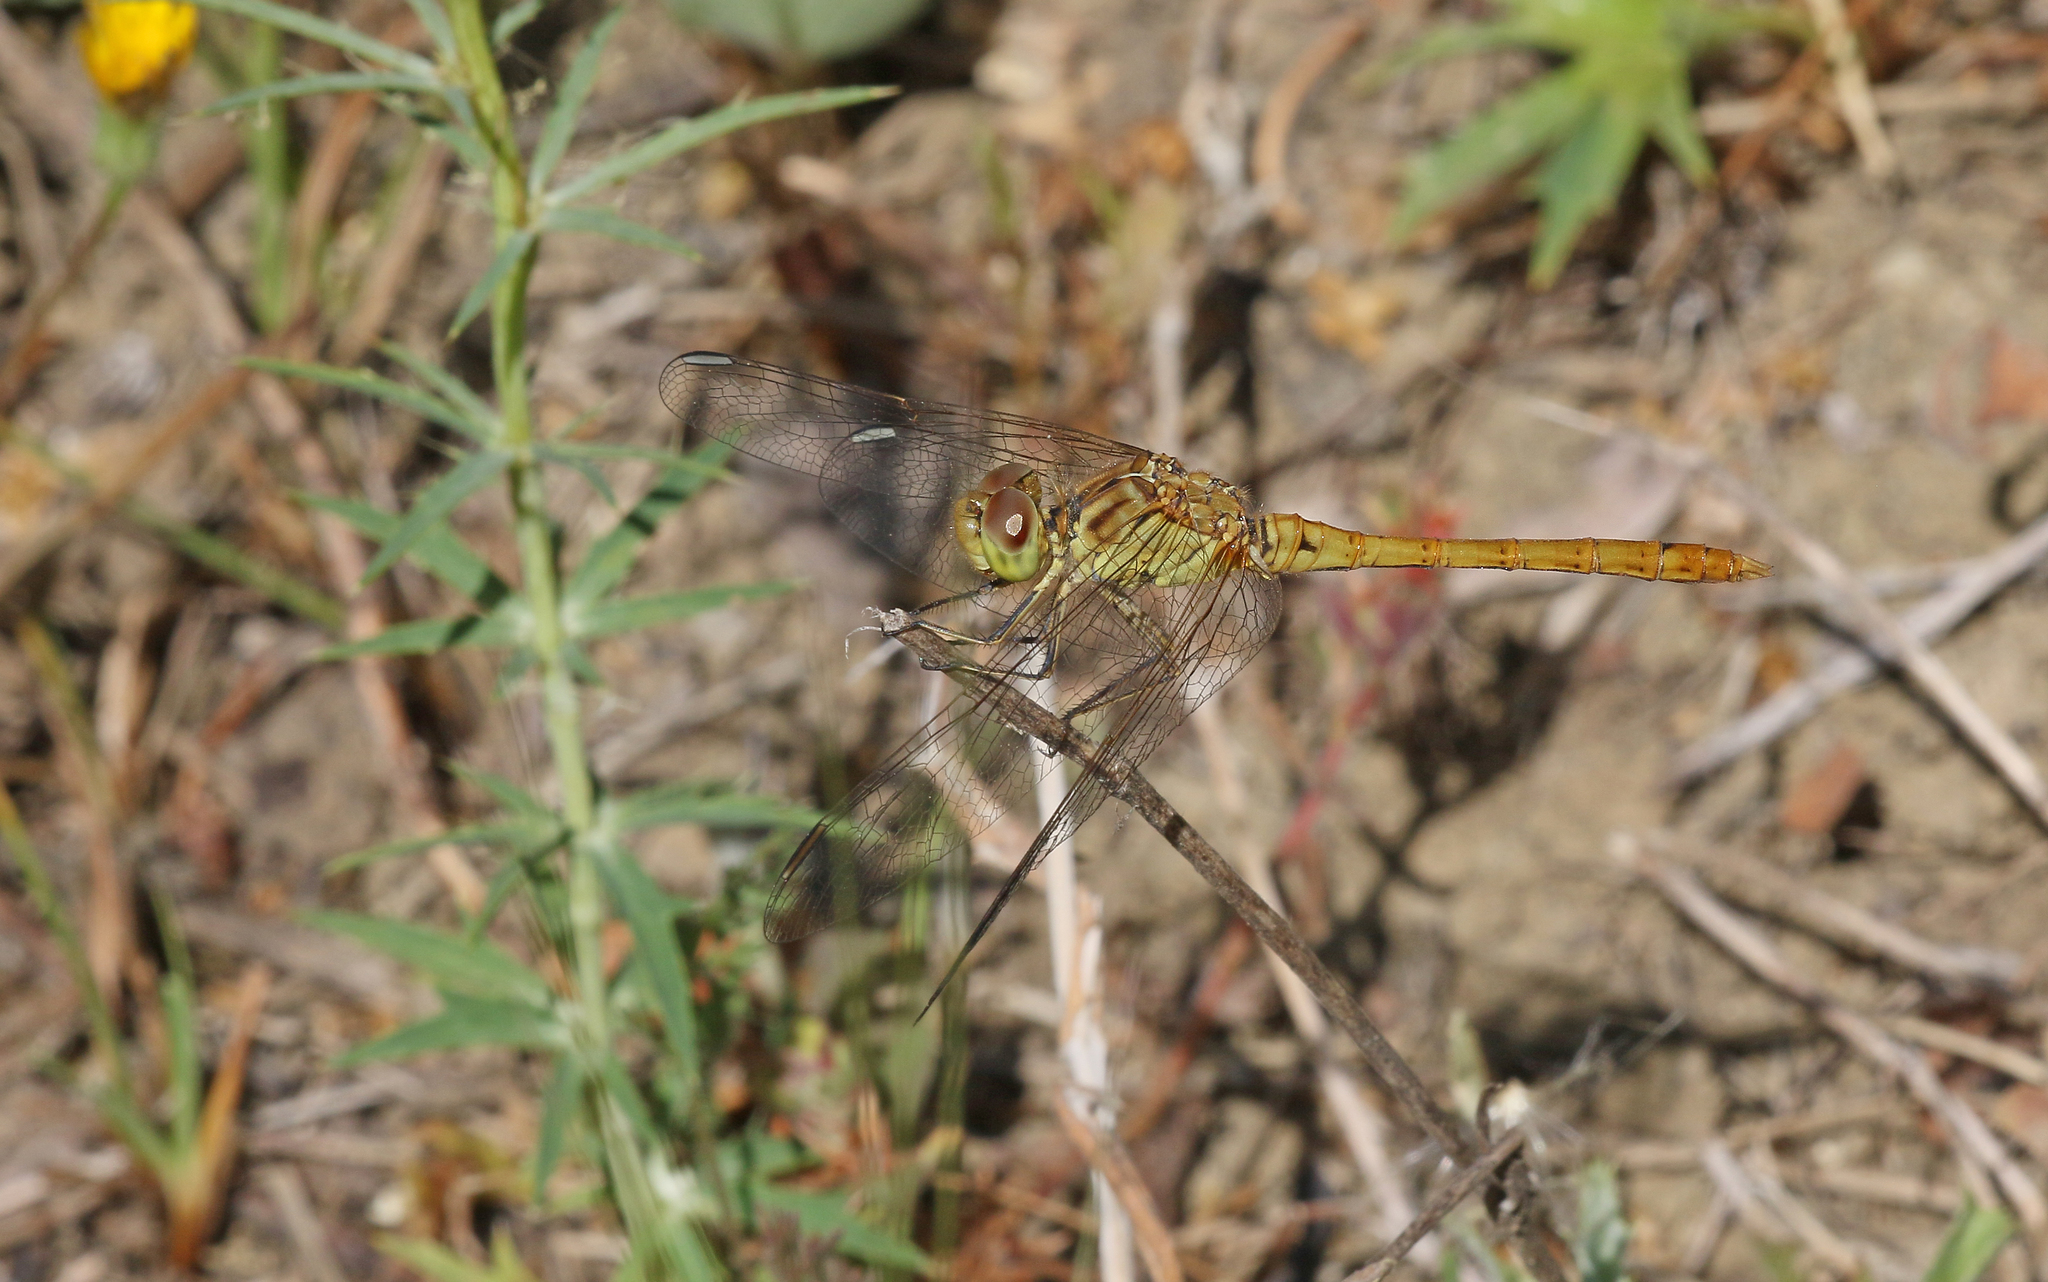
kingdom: Animalia
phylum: Arthropoda
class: Insecta
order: Odonata
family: Libellulidae
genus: Sympetrum
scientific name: Sympetrum meridionale
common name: Southern darter
